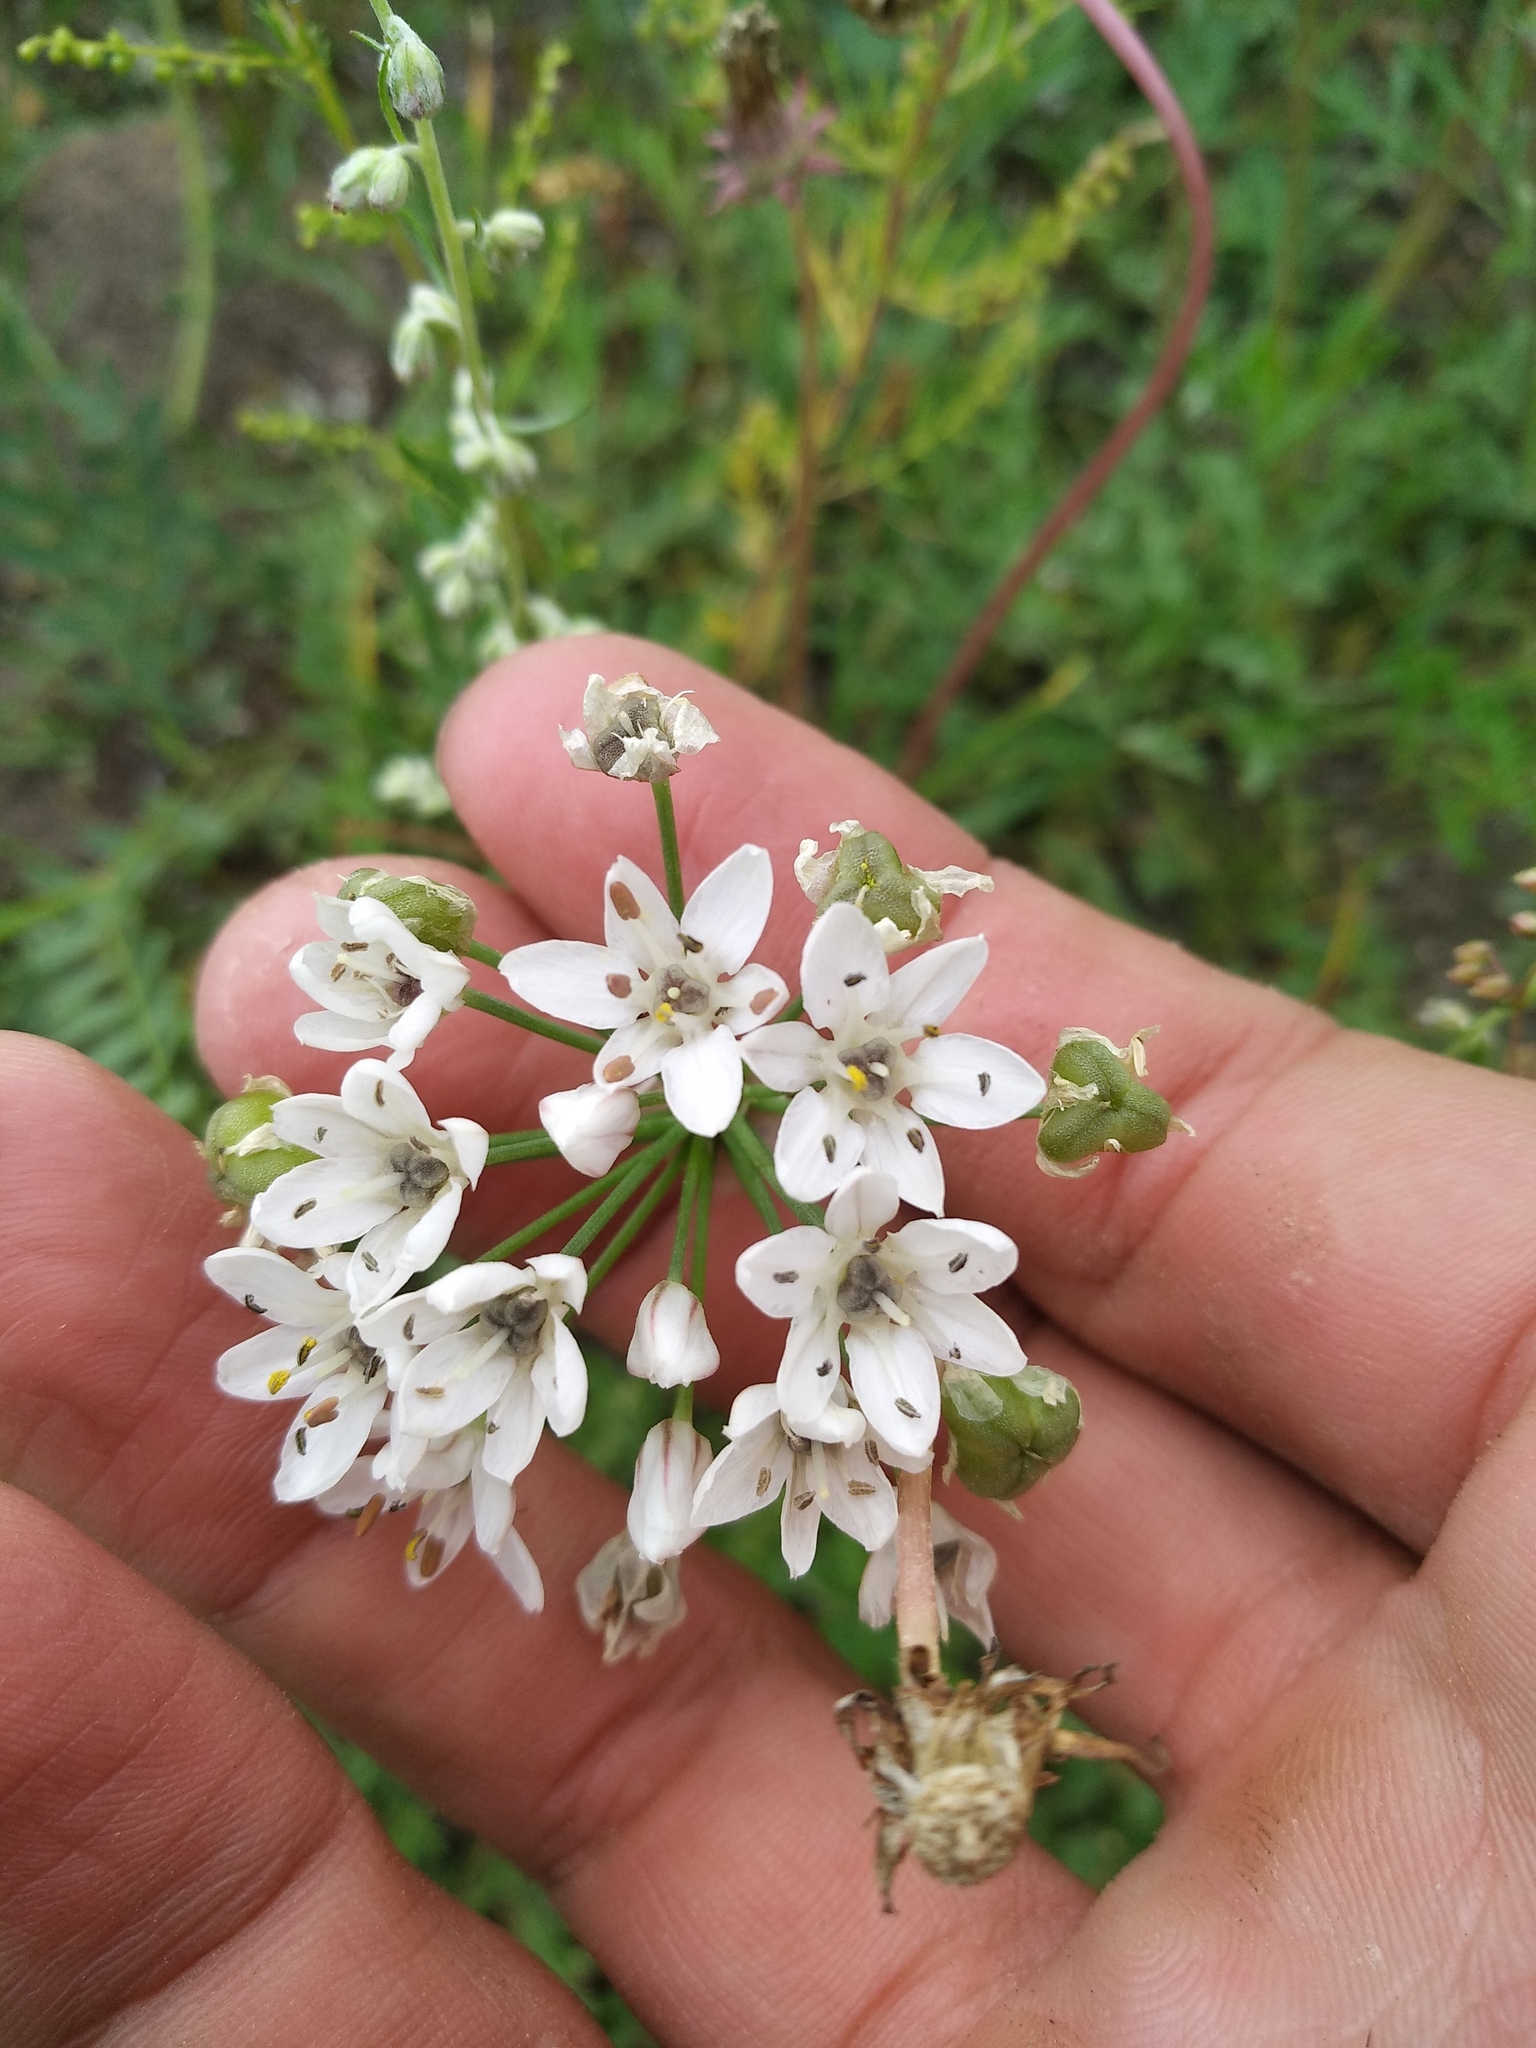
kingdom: Plantae
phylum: Tracheophyta
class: Liliopsida
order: Asparagales
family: Amaryllidaceae
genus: Allium
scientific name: Allium ramosum
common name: Fragrant garlic
